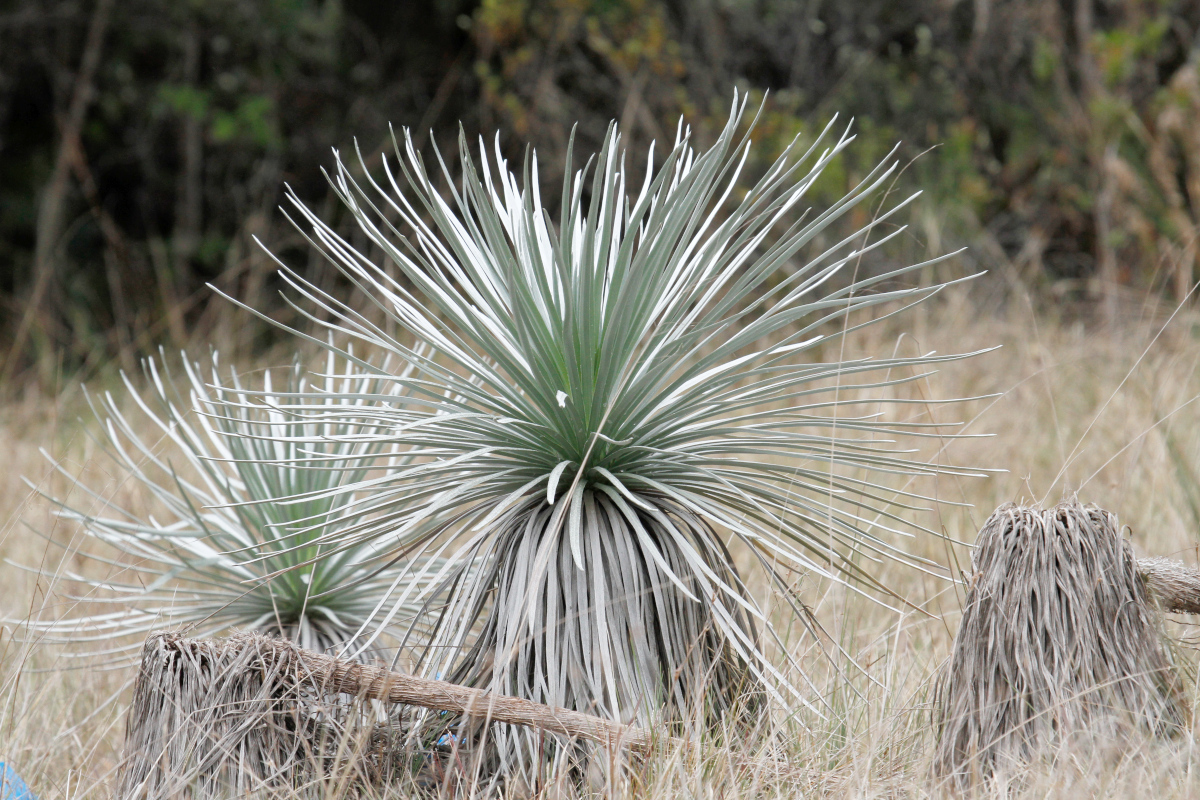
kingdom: Plantae
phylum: Tracheophyta
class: Magnoliopsida
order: Asterales
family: Asteraceae
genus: Argyroxiphium
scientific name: Argyroxiphium kauense
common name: Kau silversword
